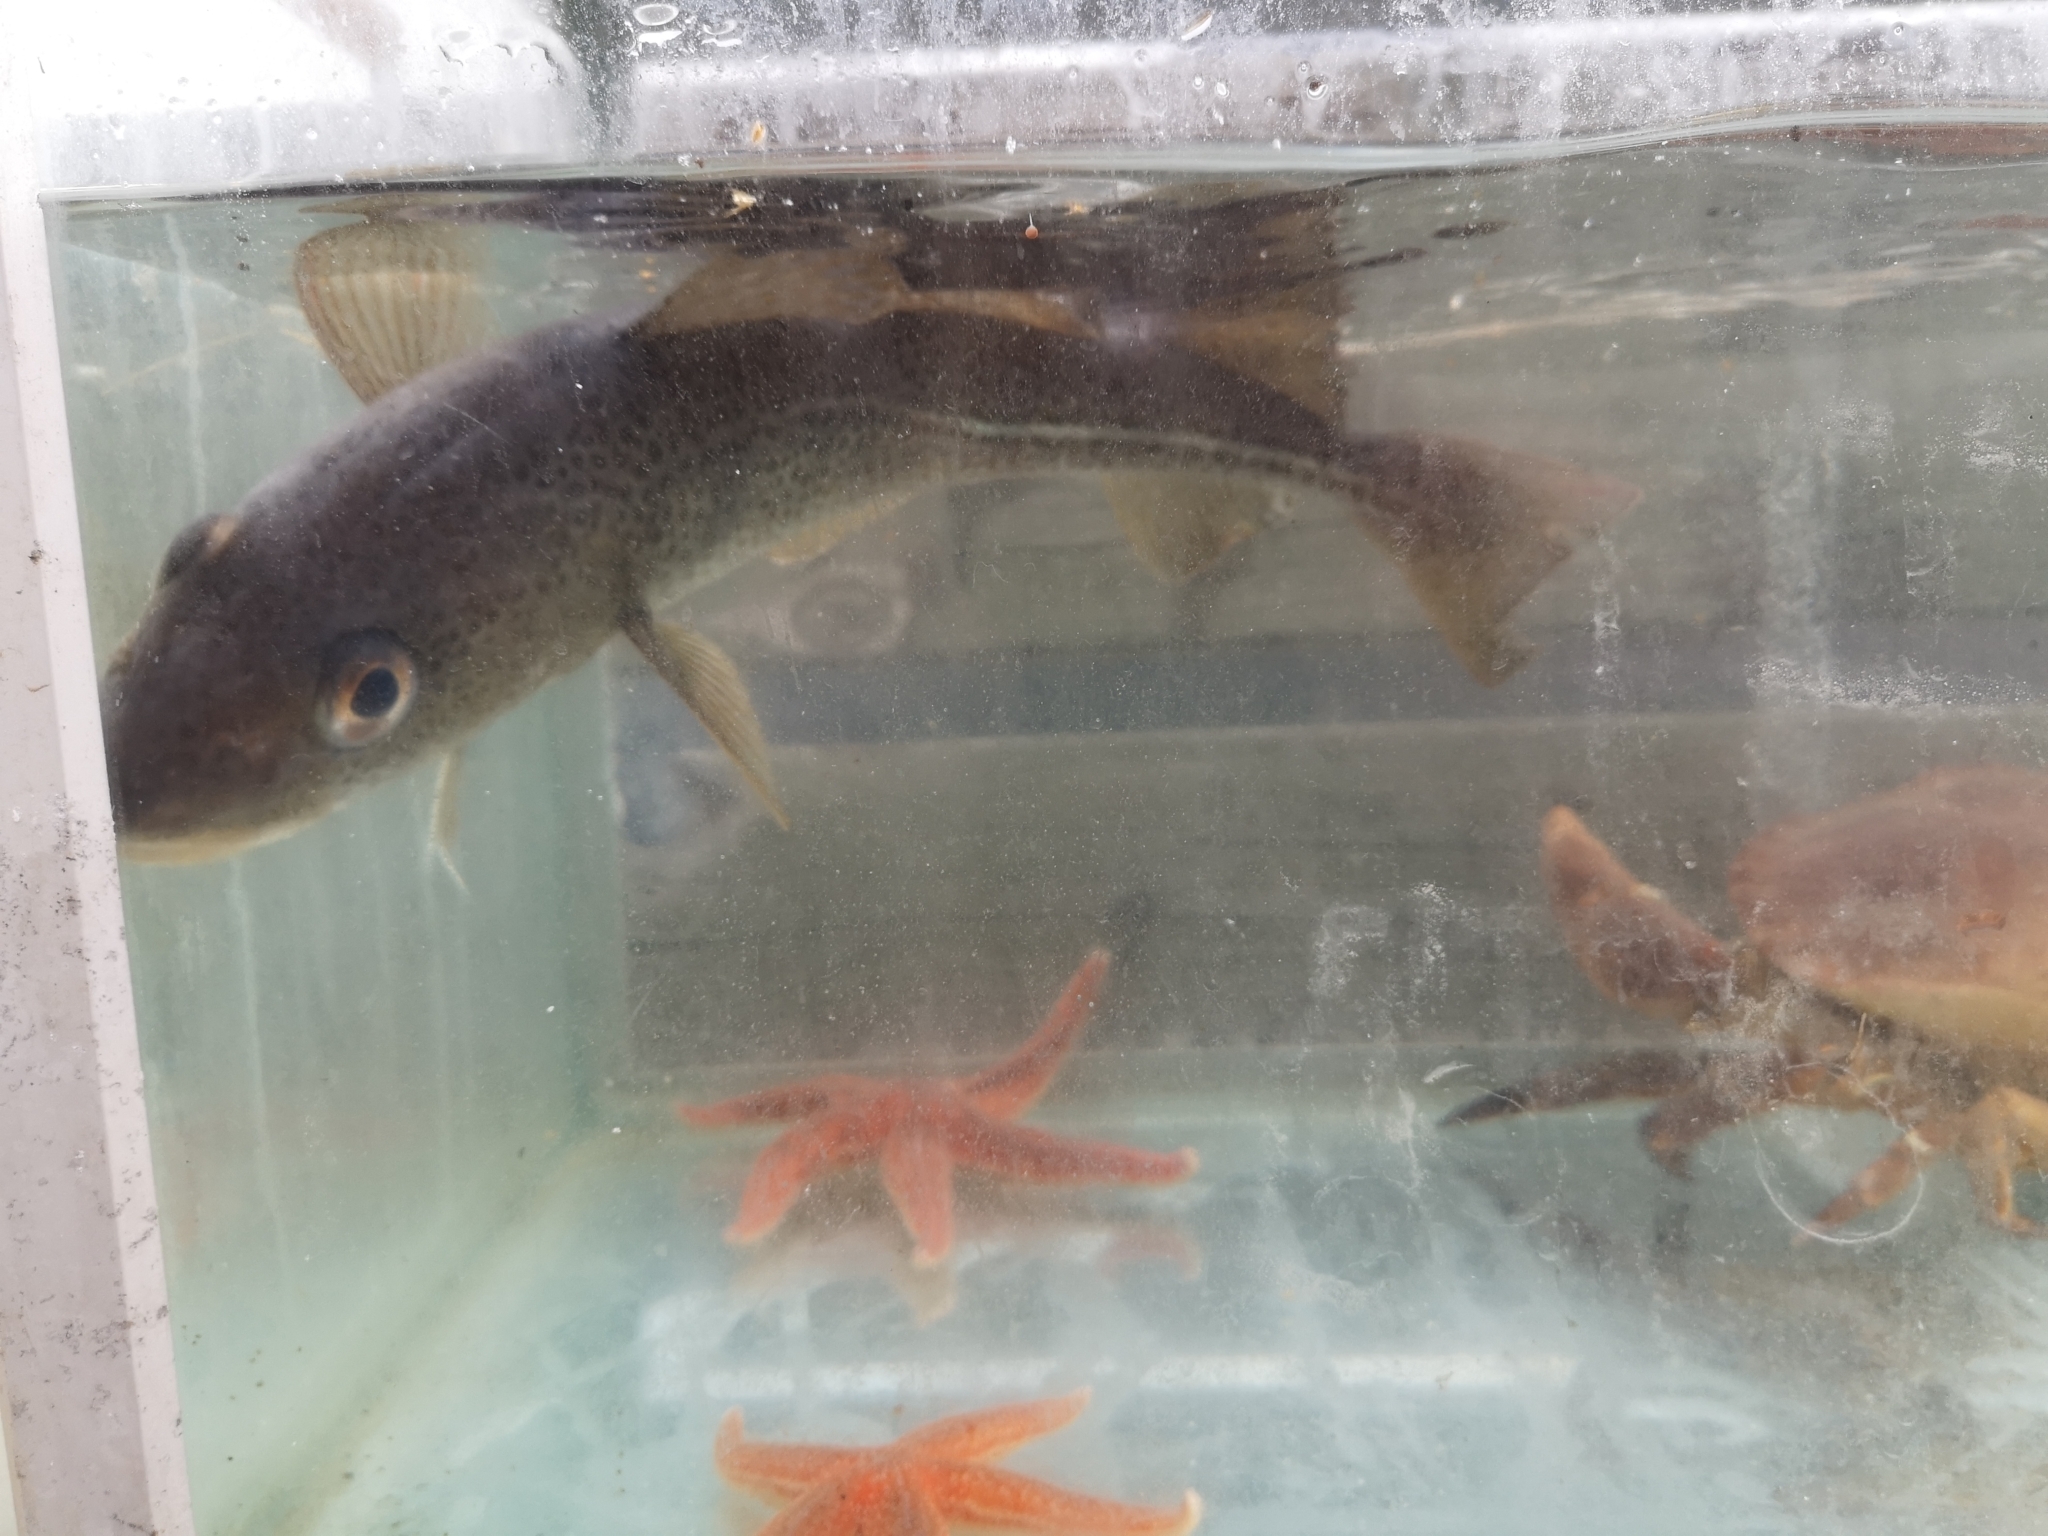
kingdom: Animalia
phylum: Chordata
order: Gadiformes
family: Gadidae
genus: Gadus
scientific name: Gadus morhua
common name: Atlantic cod
